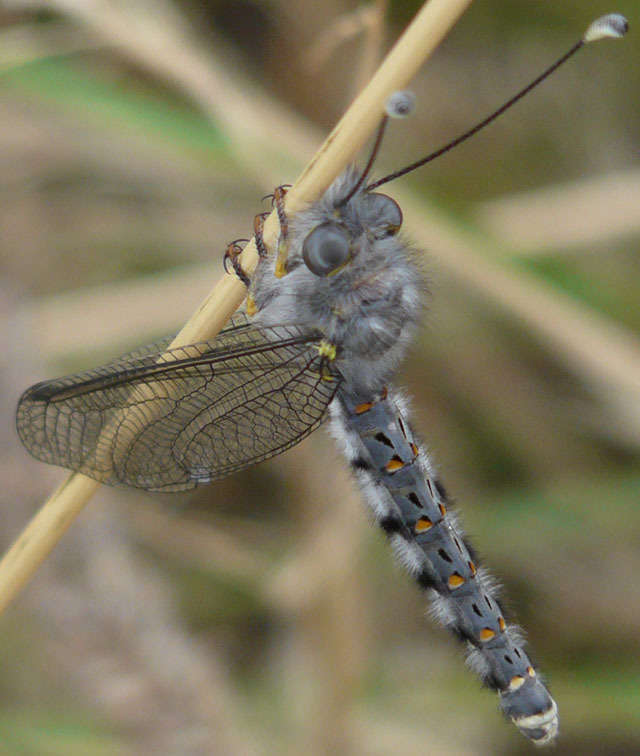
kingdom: Animalia
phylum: Arthropoda
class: Insecta
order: Neuroptera
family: Ascalaphidae
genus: Pilacmonotus
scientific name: Pilacmonotus sabulosus
